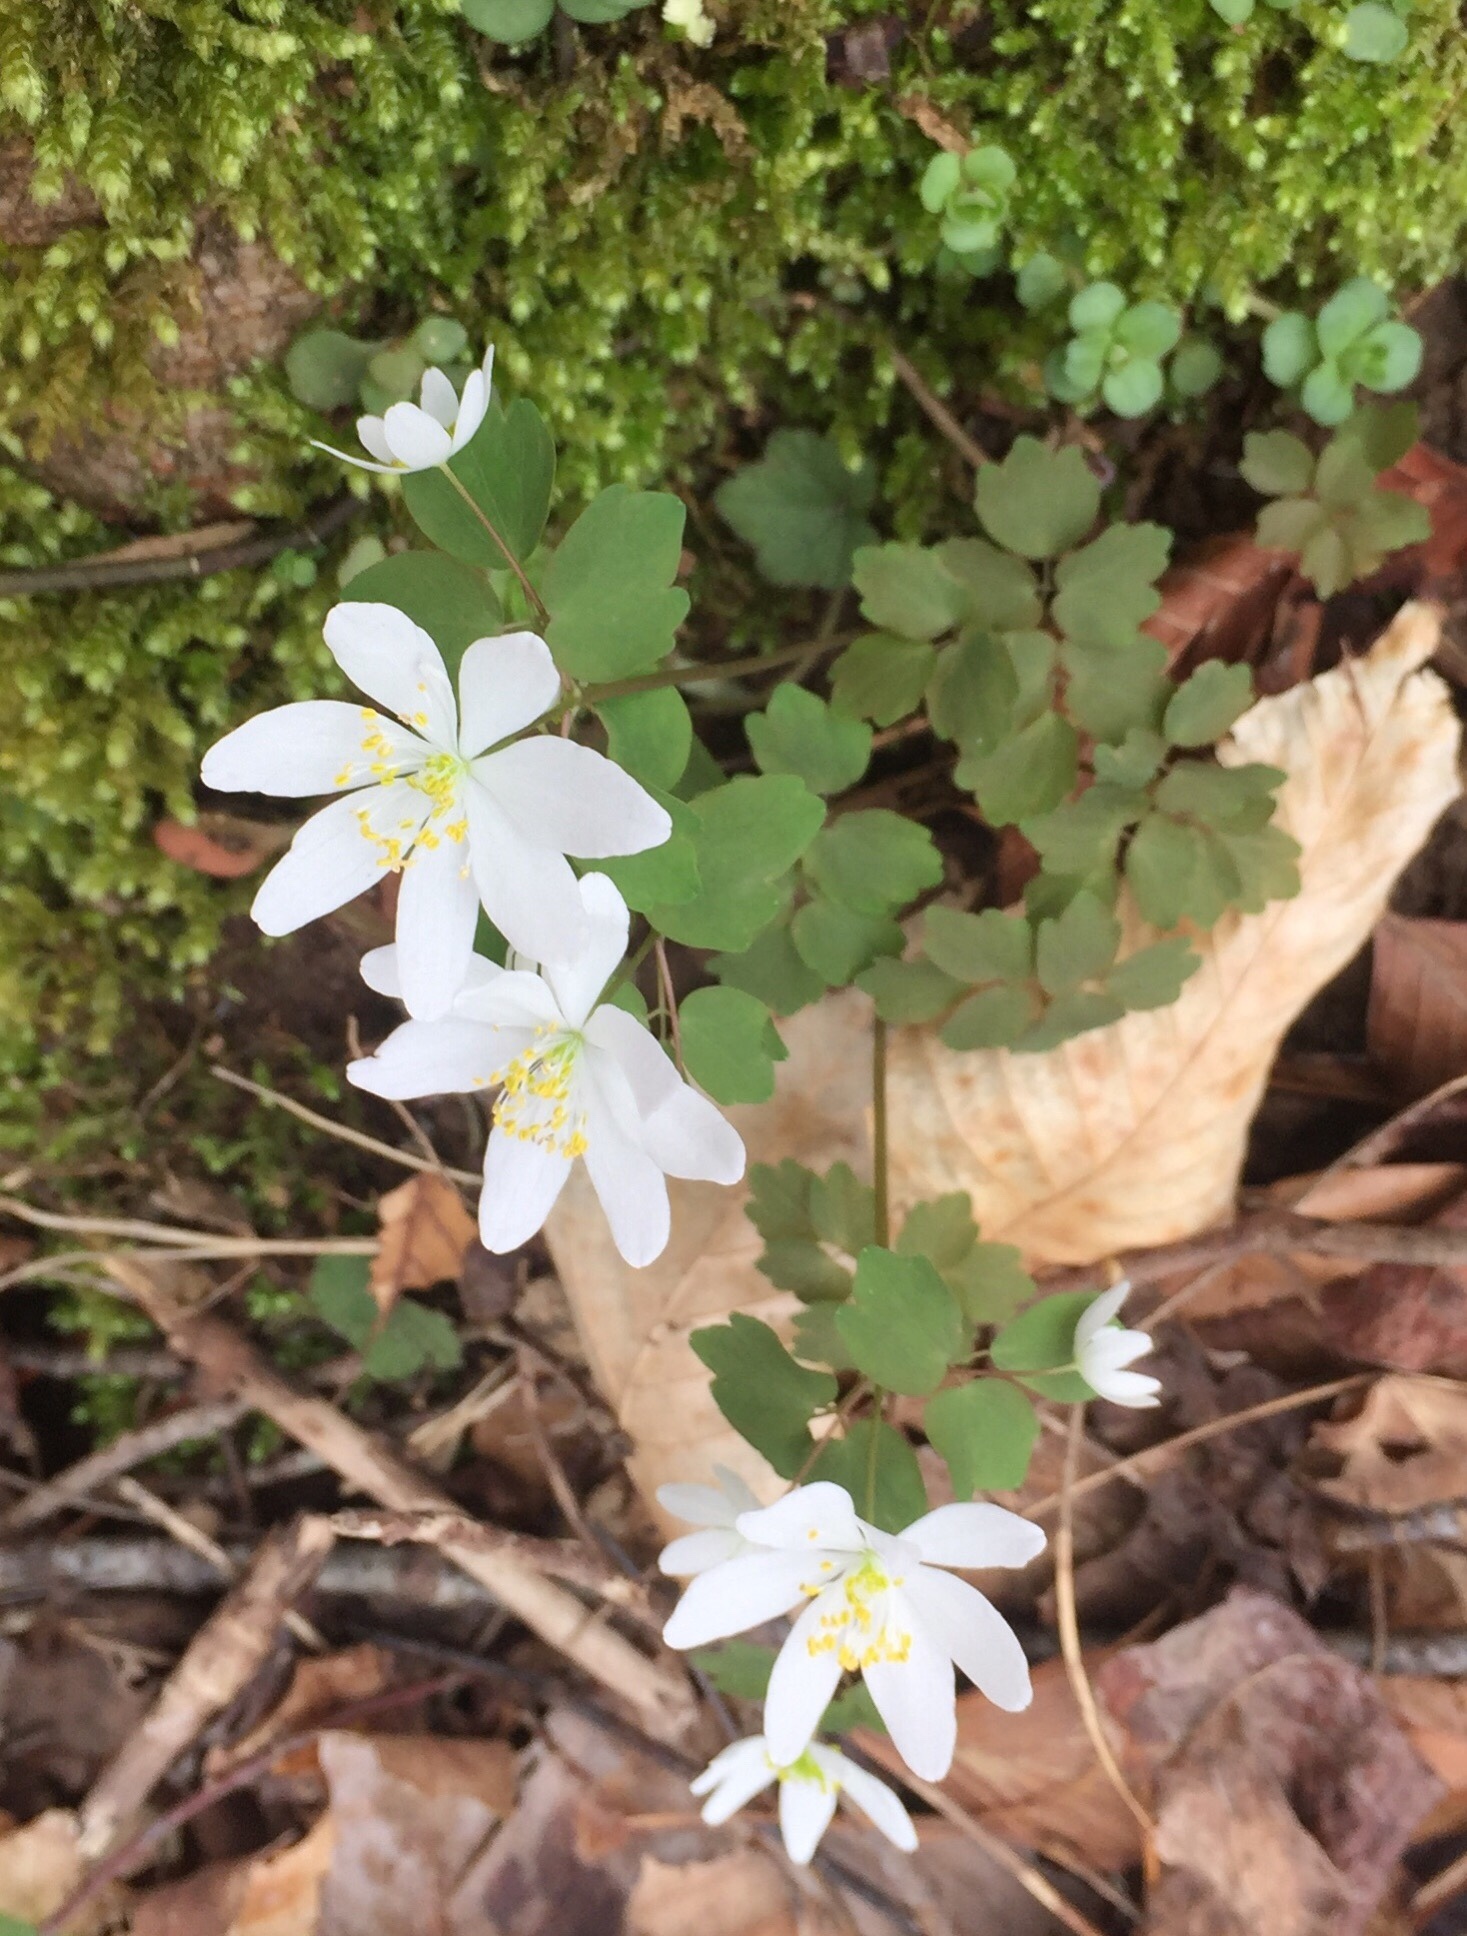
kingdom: Plantae
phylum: Tracheophyta
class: Magnoliopsida
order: Ranunculales
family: Ranunculaceae
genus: Thalictrum
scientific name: Thalictrum thalictroides
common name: Rue-anemone
